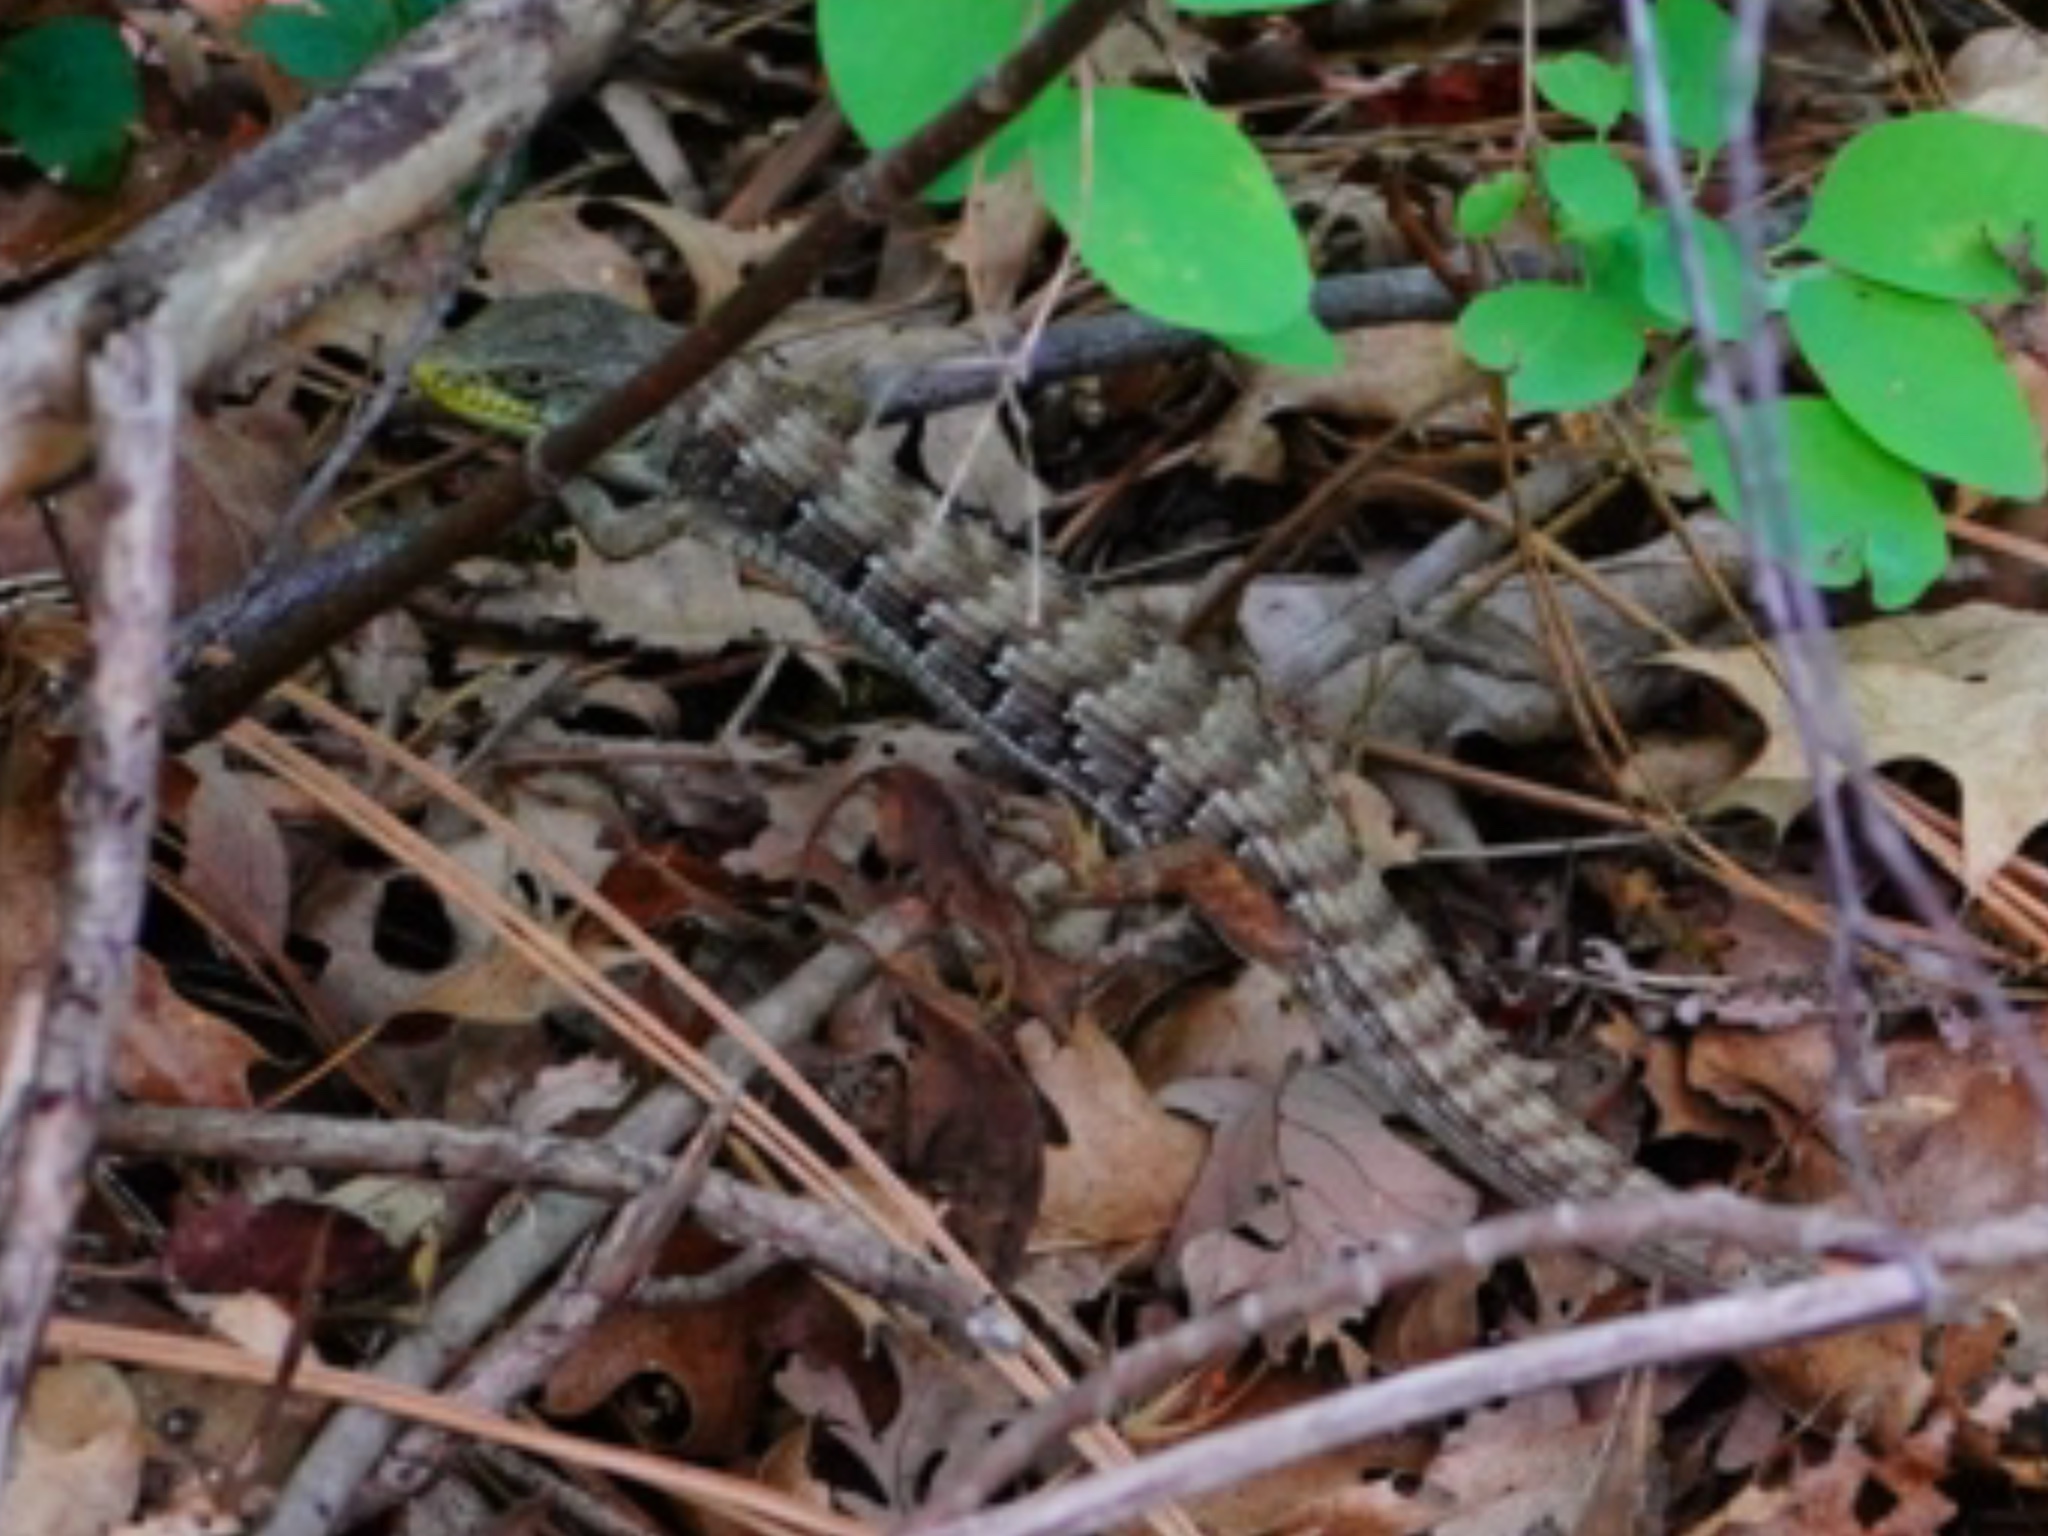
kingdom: Animalia
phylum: Chordata
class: Squamata
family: Anguidae
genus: Elgaria
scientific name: Elgaria multicarinata
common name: Southern alligator lizard
